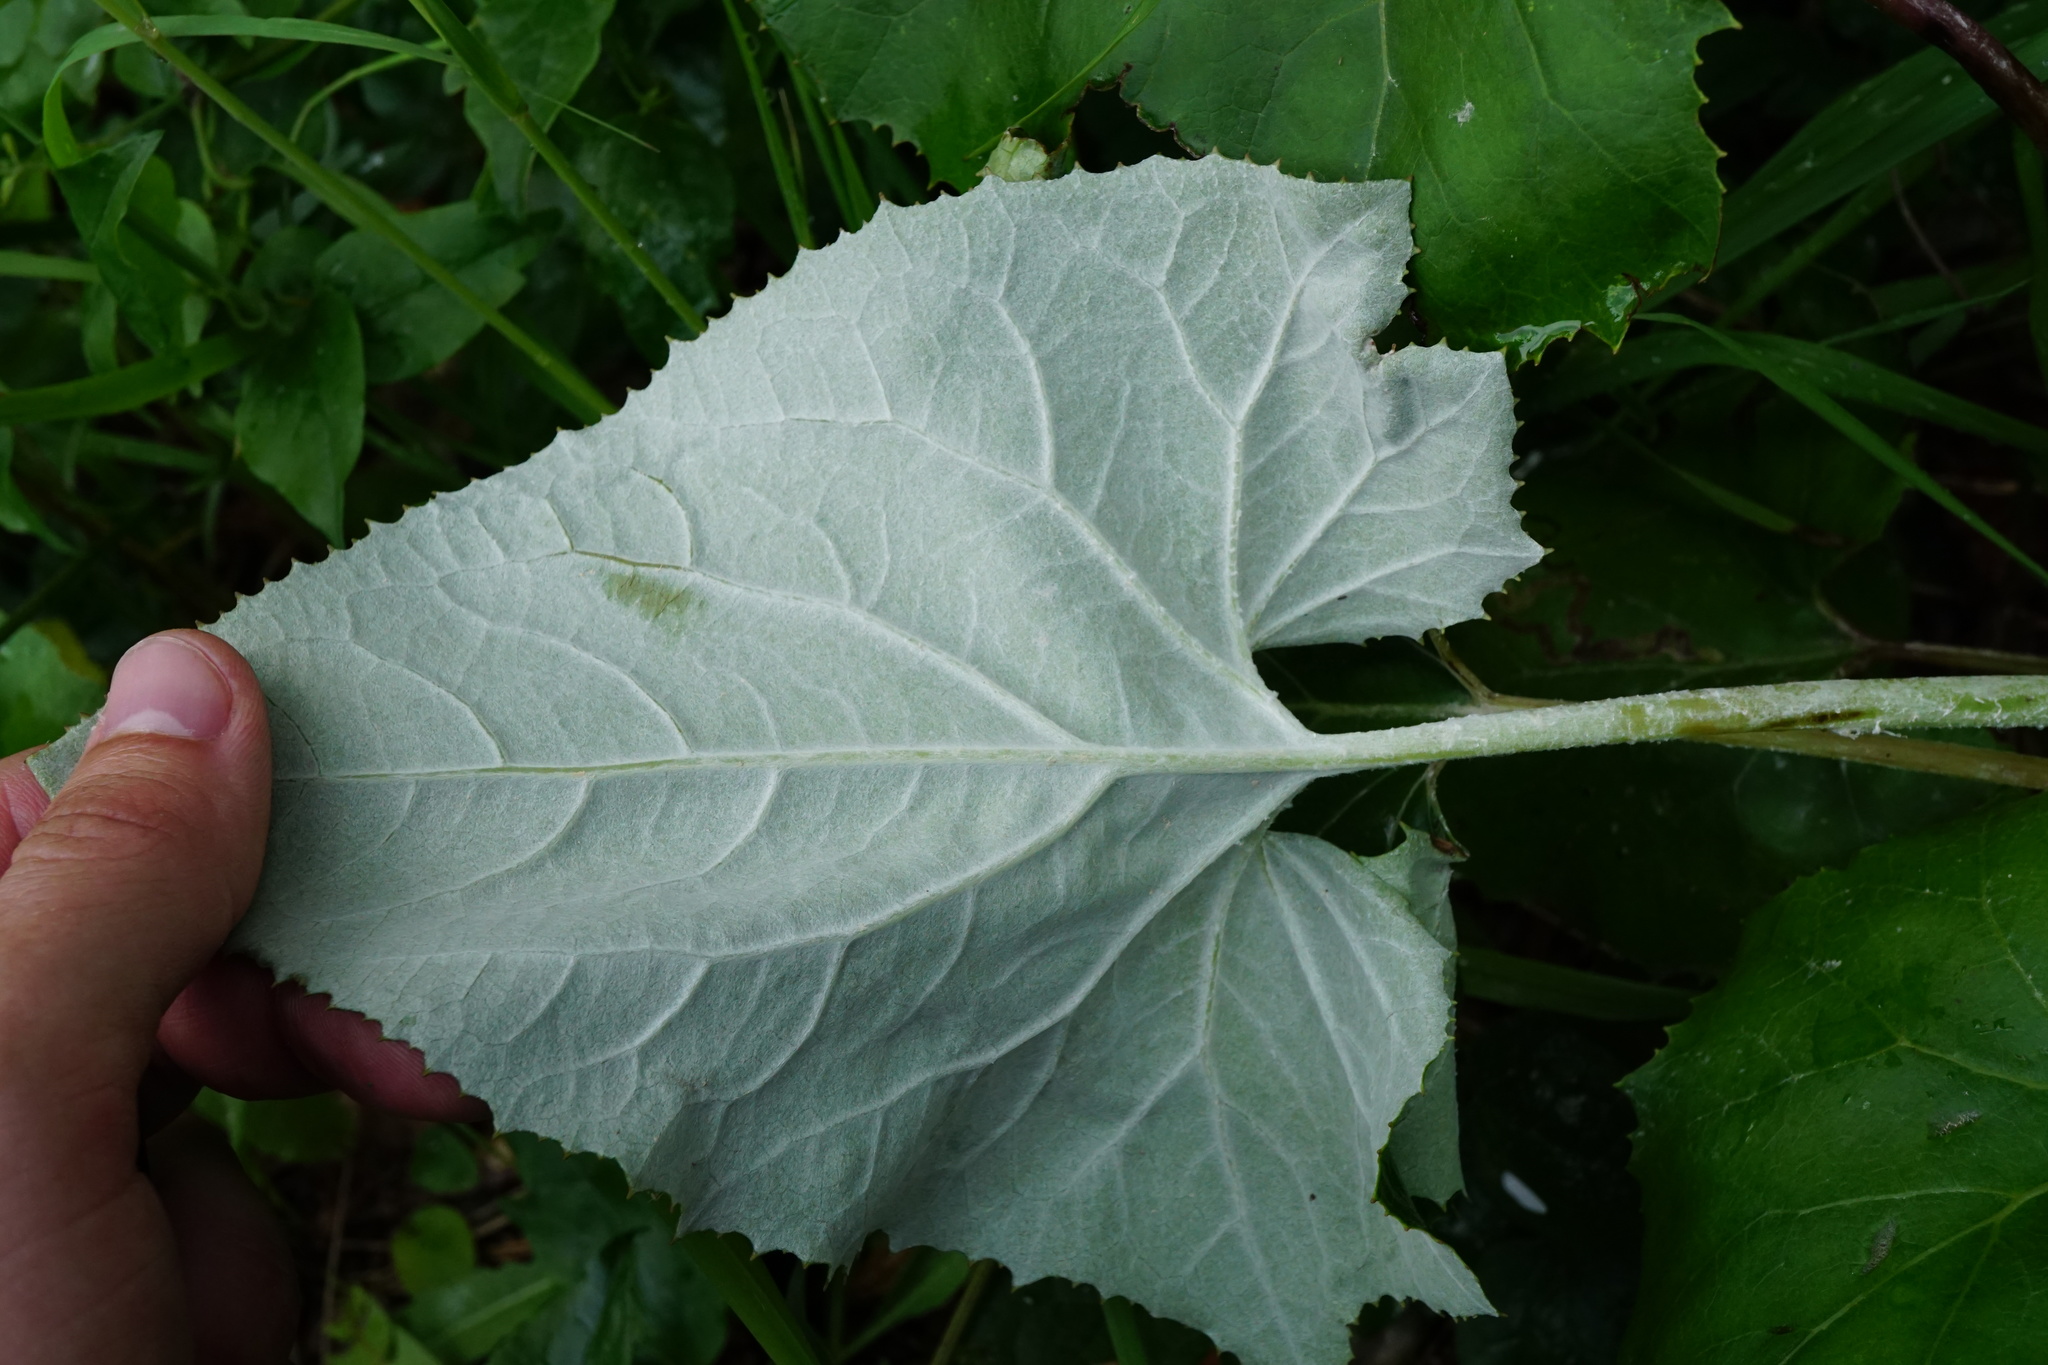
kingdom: Plantae
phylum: Tracheophyta
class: Magnoliopsida
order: Asterales
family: Asteraceae
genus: Petasites
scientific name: Petasites paradoxus
